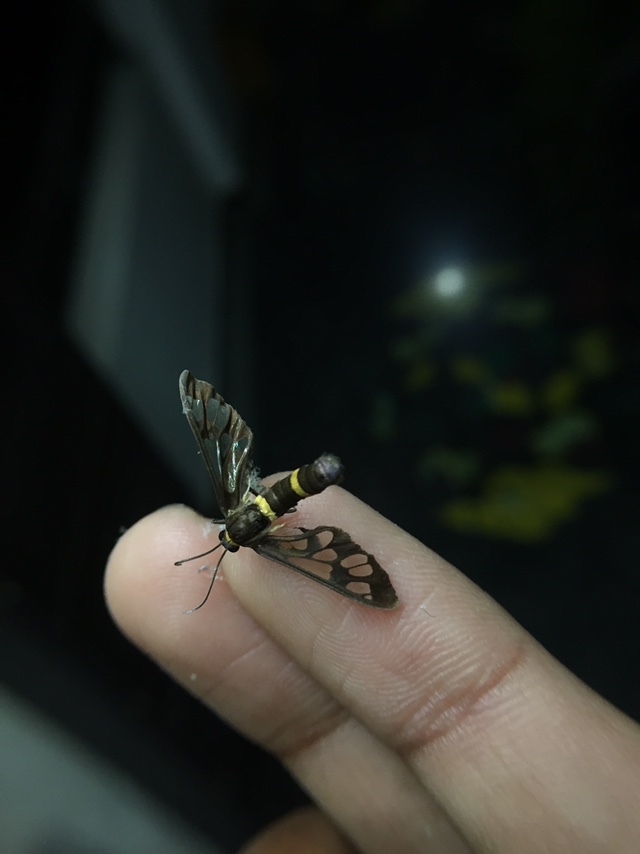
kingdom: Animalia
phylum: Arthropoda
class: Insecta
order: Lepidoptera
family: Erebidae
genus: Syntomoides
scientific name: Syntomoides imaon
